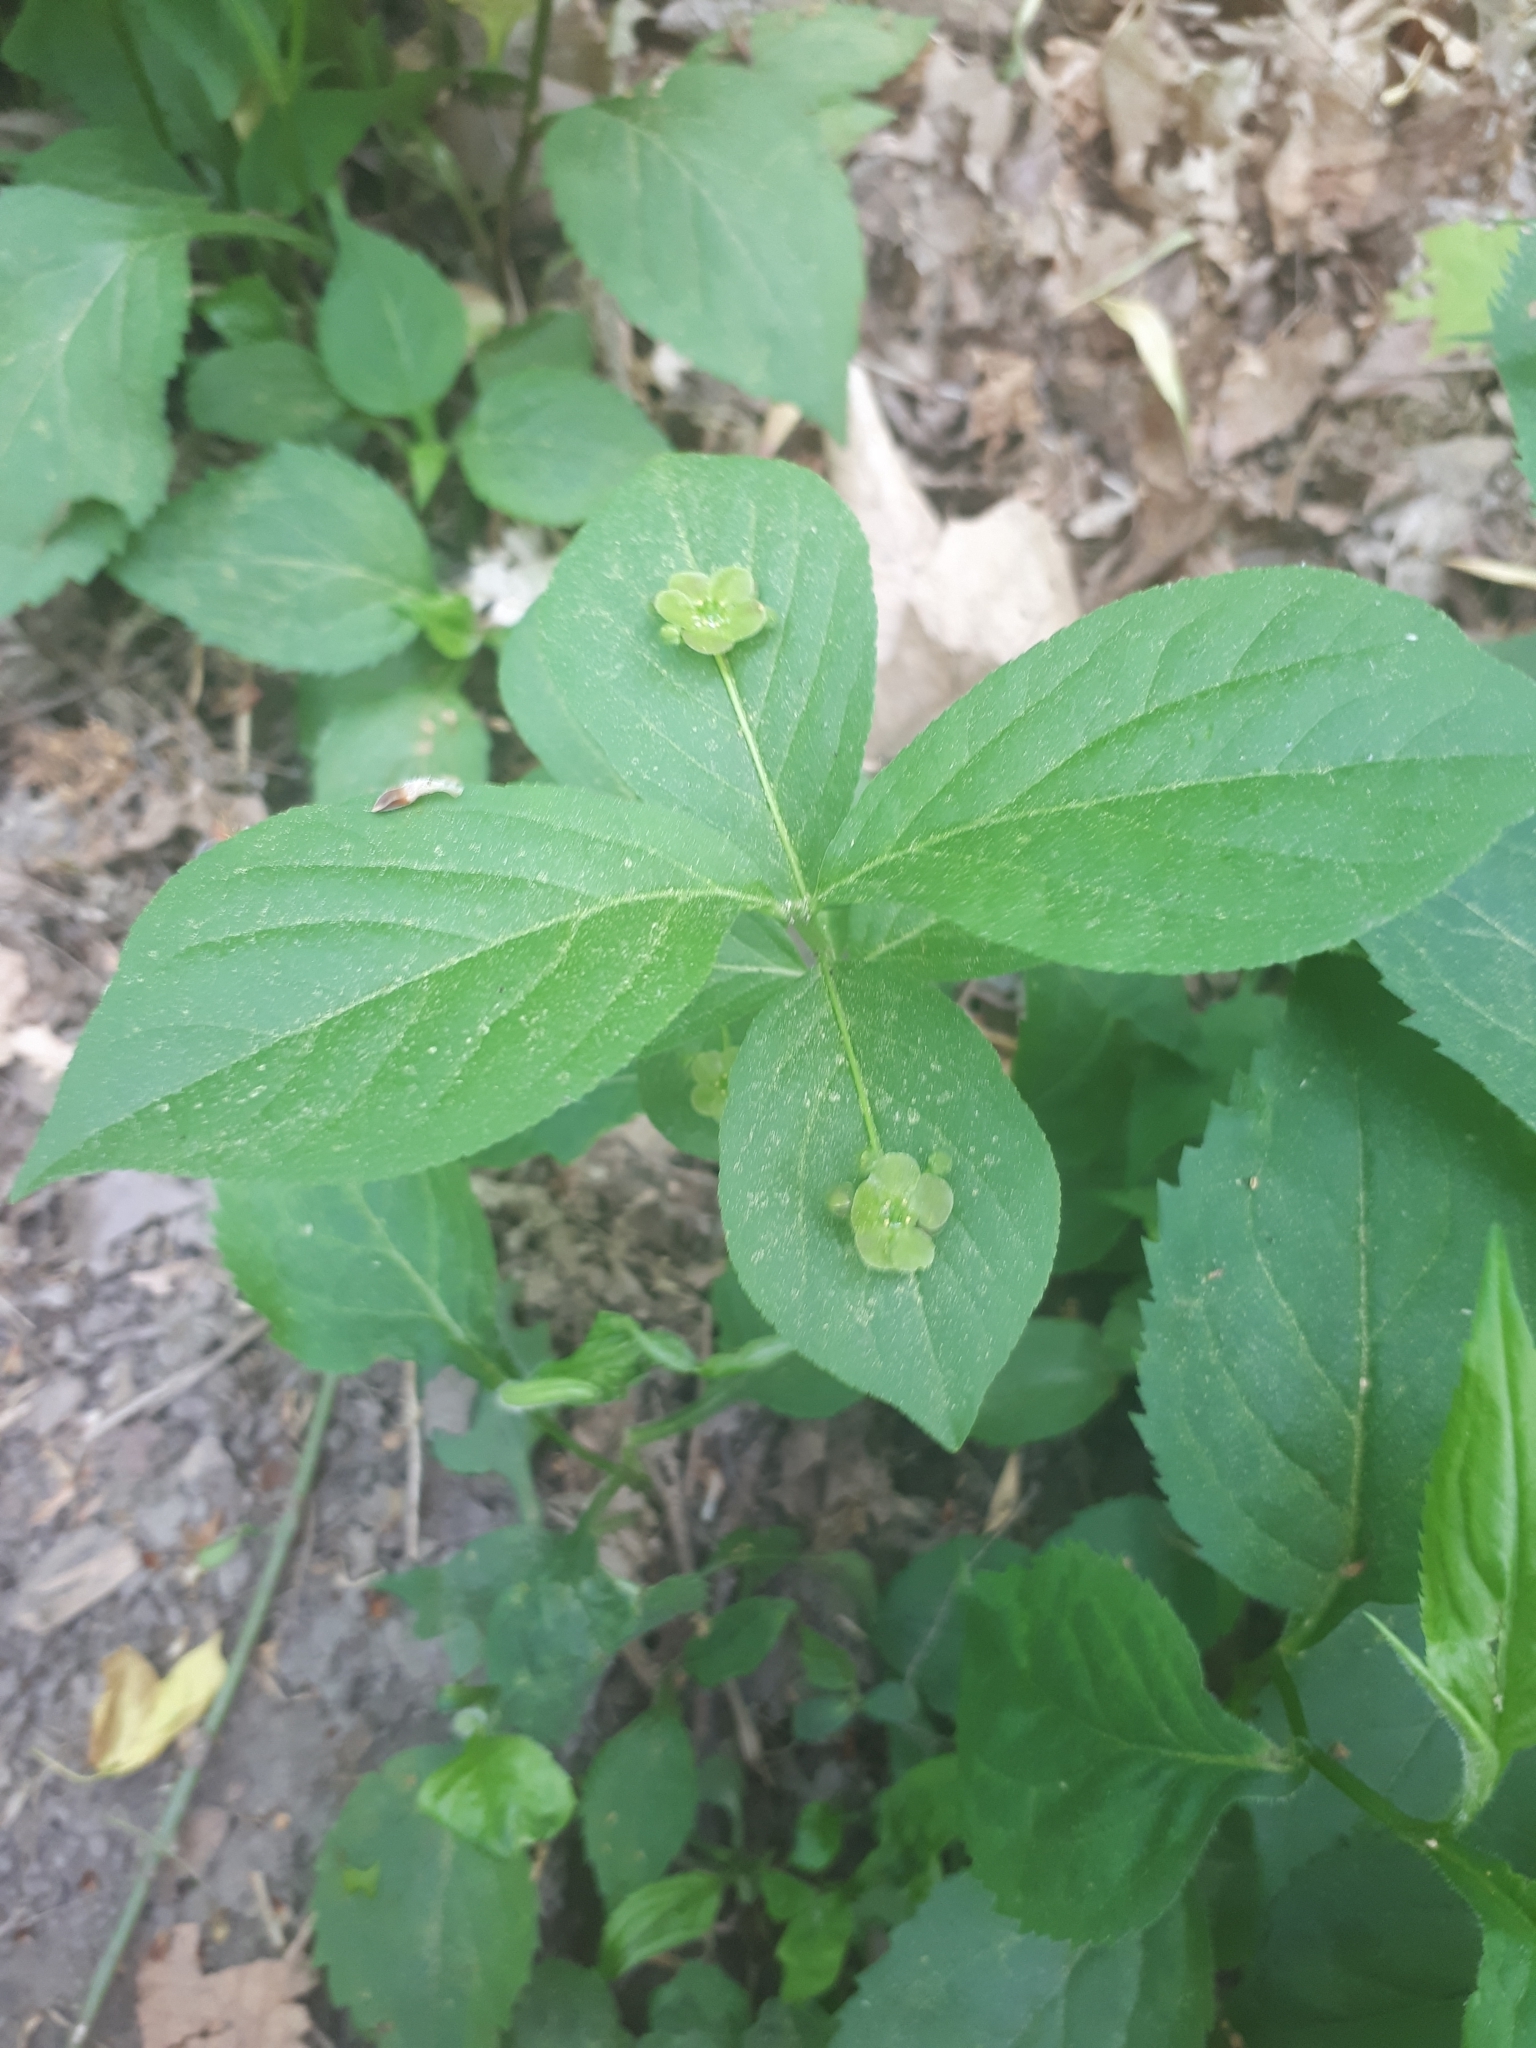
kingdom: Plantae
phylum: Tracheophyta
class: Magnoliopsida
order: Celastrales
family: Celastraceae
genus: Euonymus
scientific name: Euonymus obovatus
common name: Running strawberry-bush
